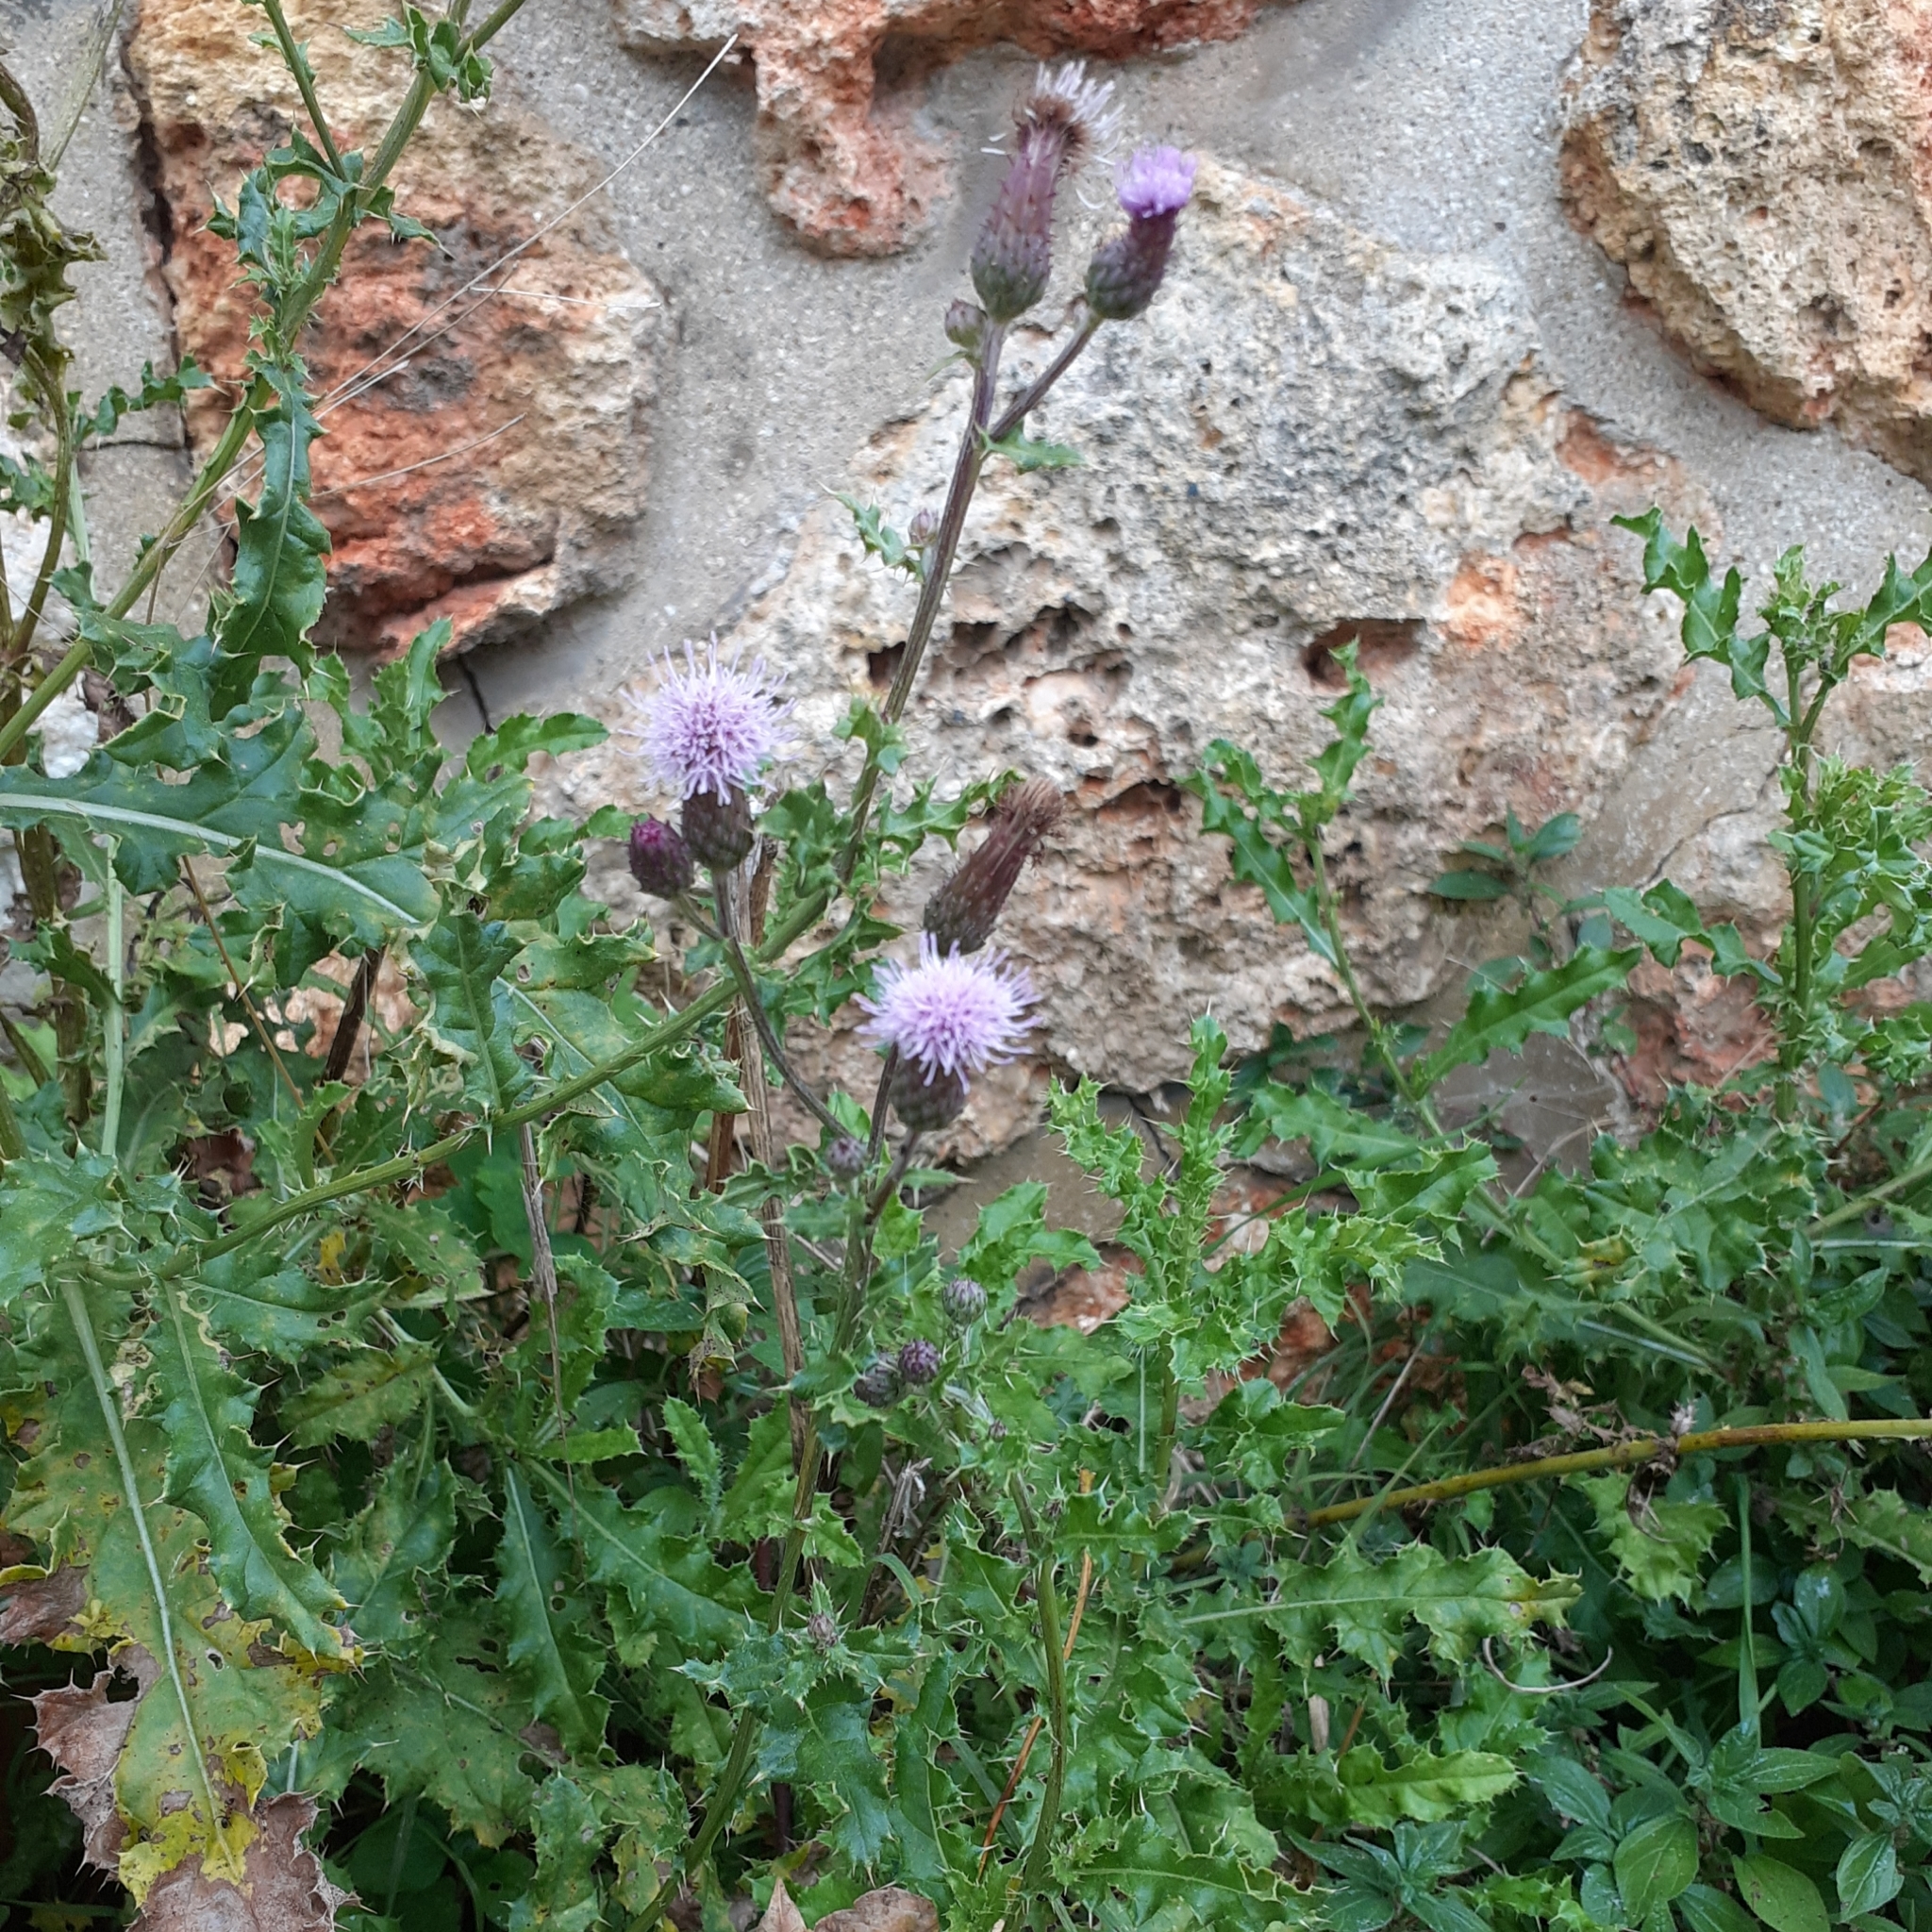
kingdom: Plantae
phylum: Tracheophyta
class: Magnoliopsida
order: Asterales
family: Asteraceae
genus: Cirsium
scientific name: Cirsium arvense
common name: Creeping thistle
